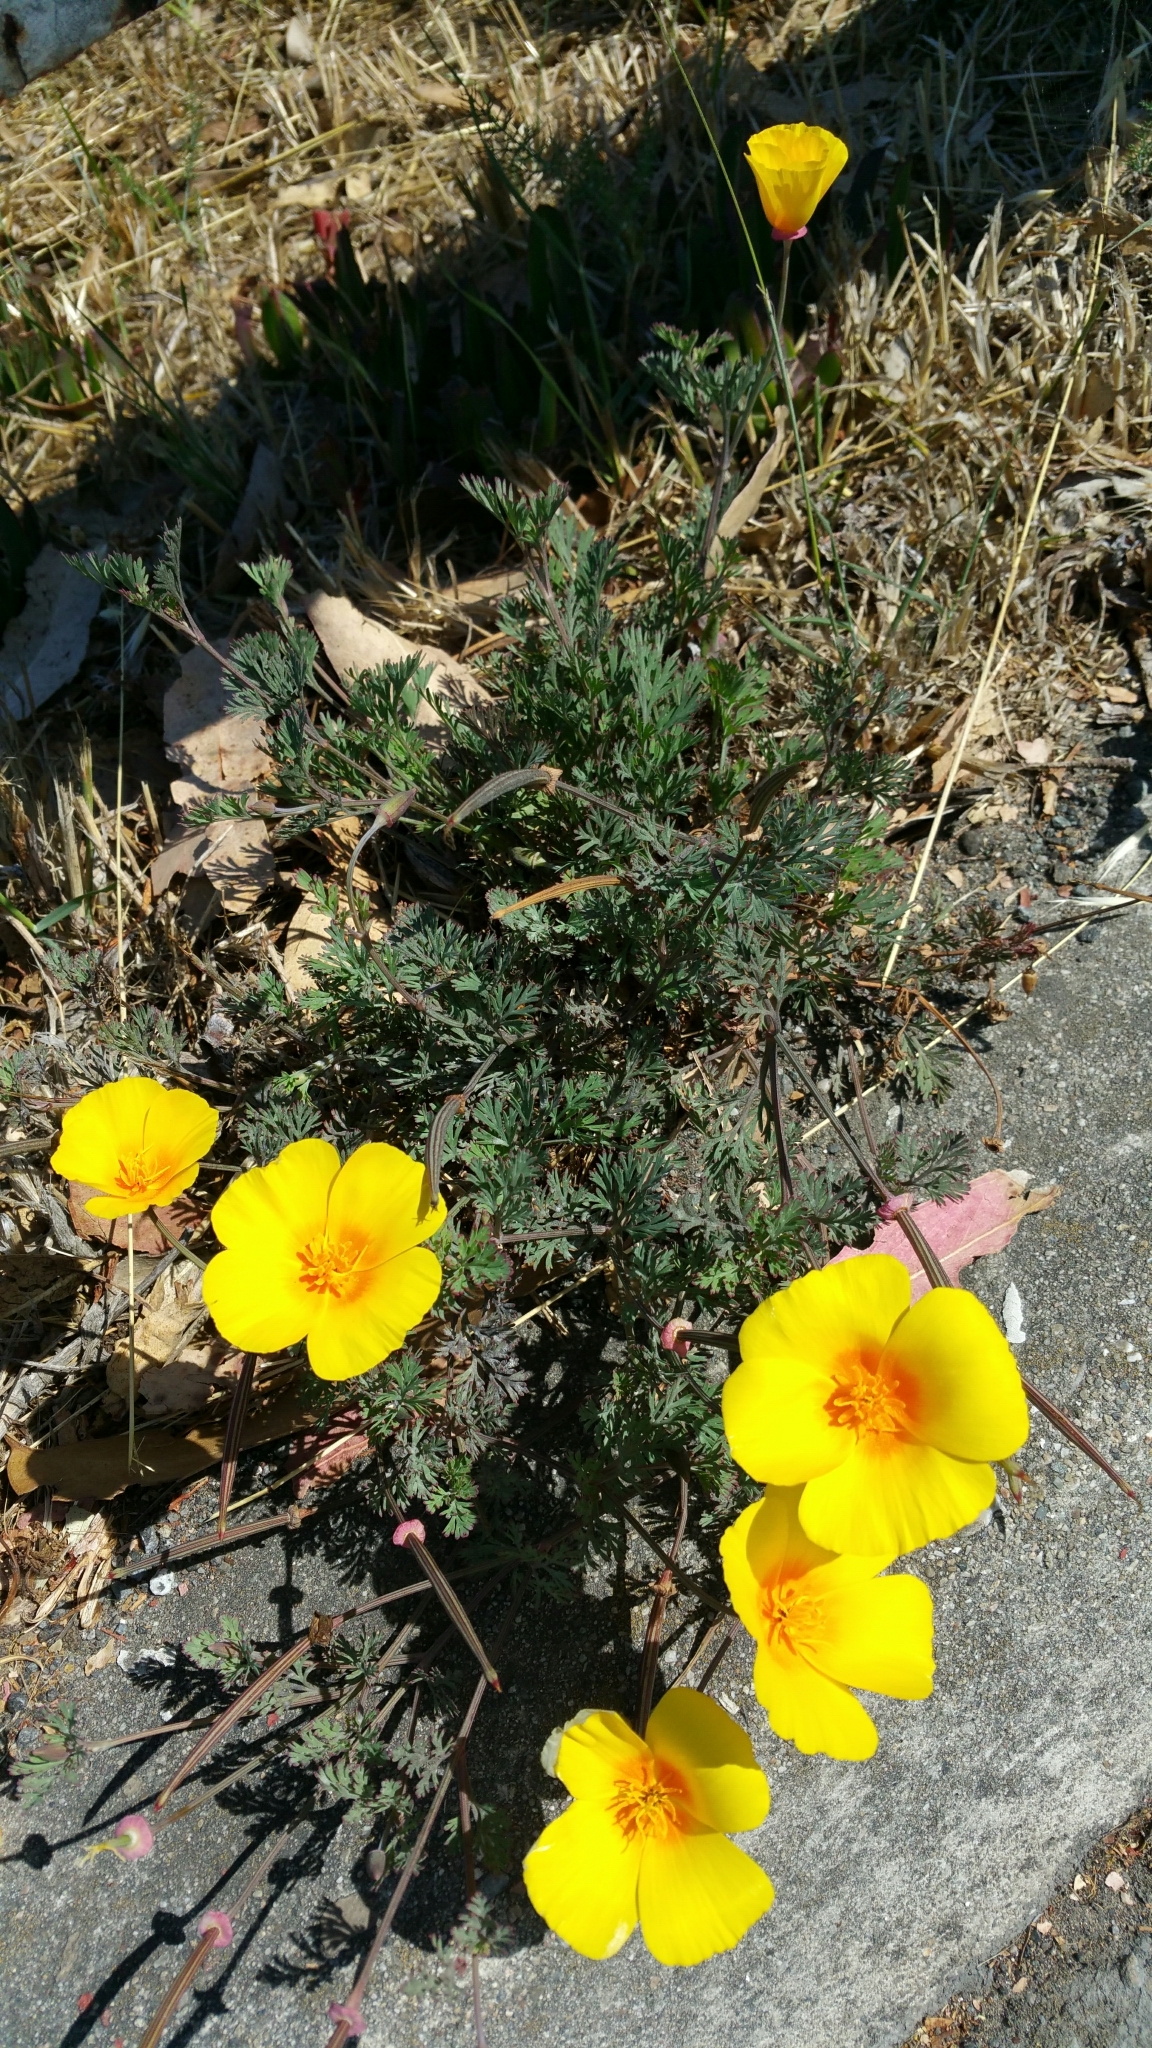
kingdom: Plantae
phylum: Tracheophyta
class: Magnoliopsida
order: Ranunculales
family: Papaveraceae
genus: Eschscholzia
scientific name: Eschscholzia californica
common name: California poppy
